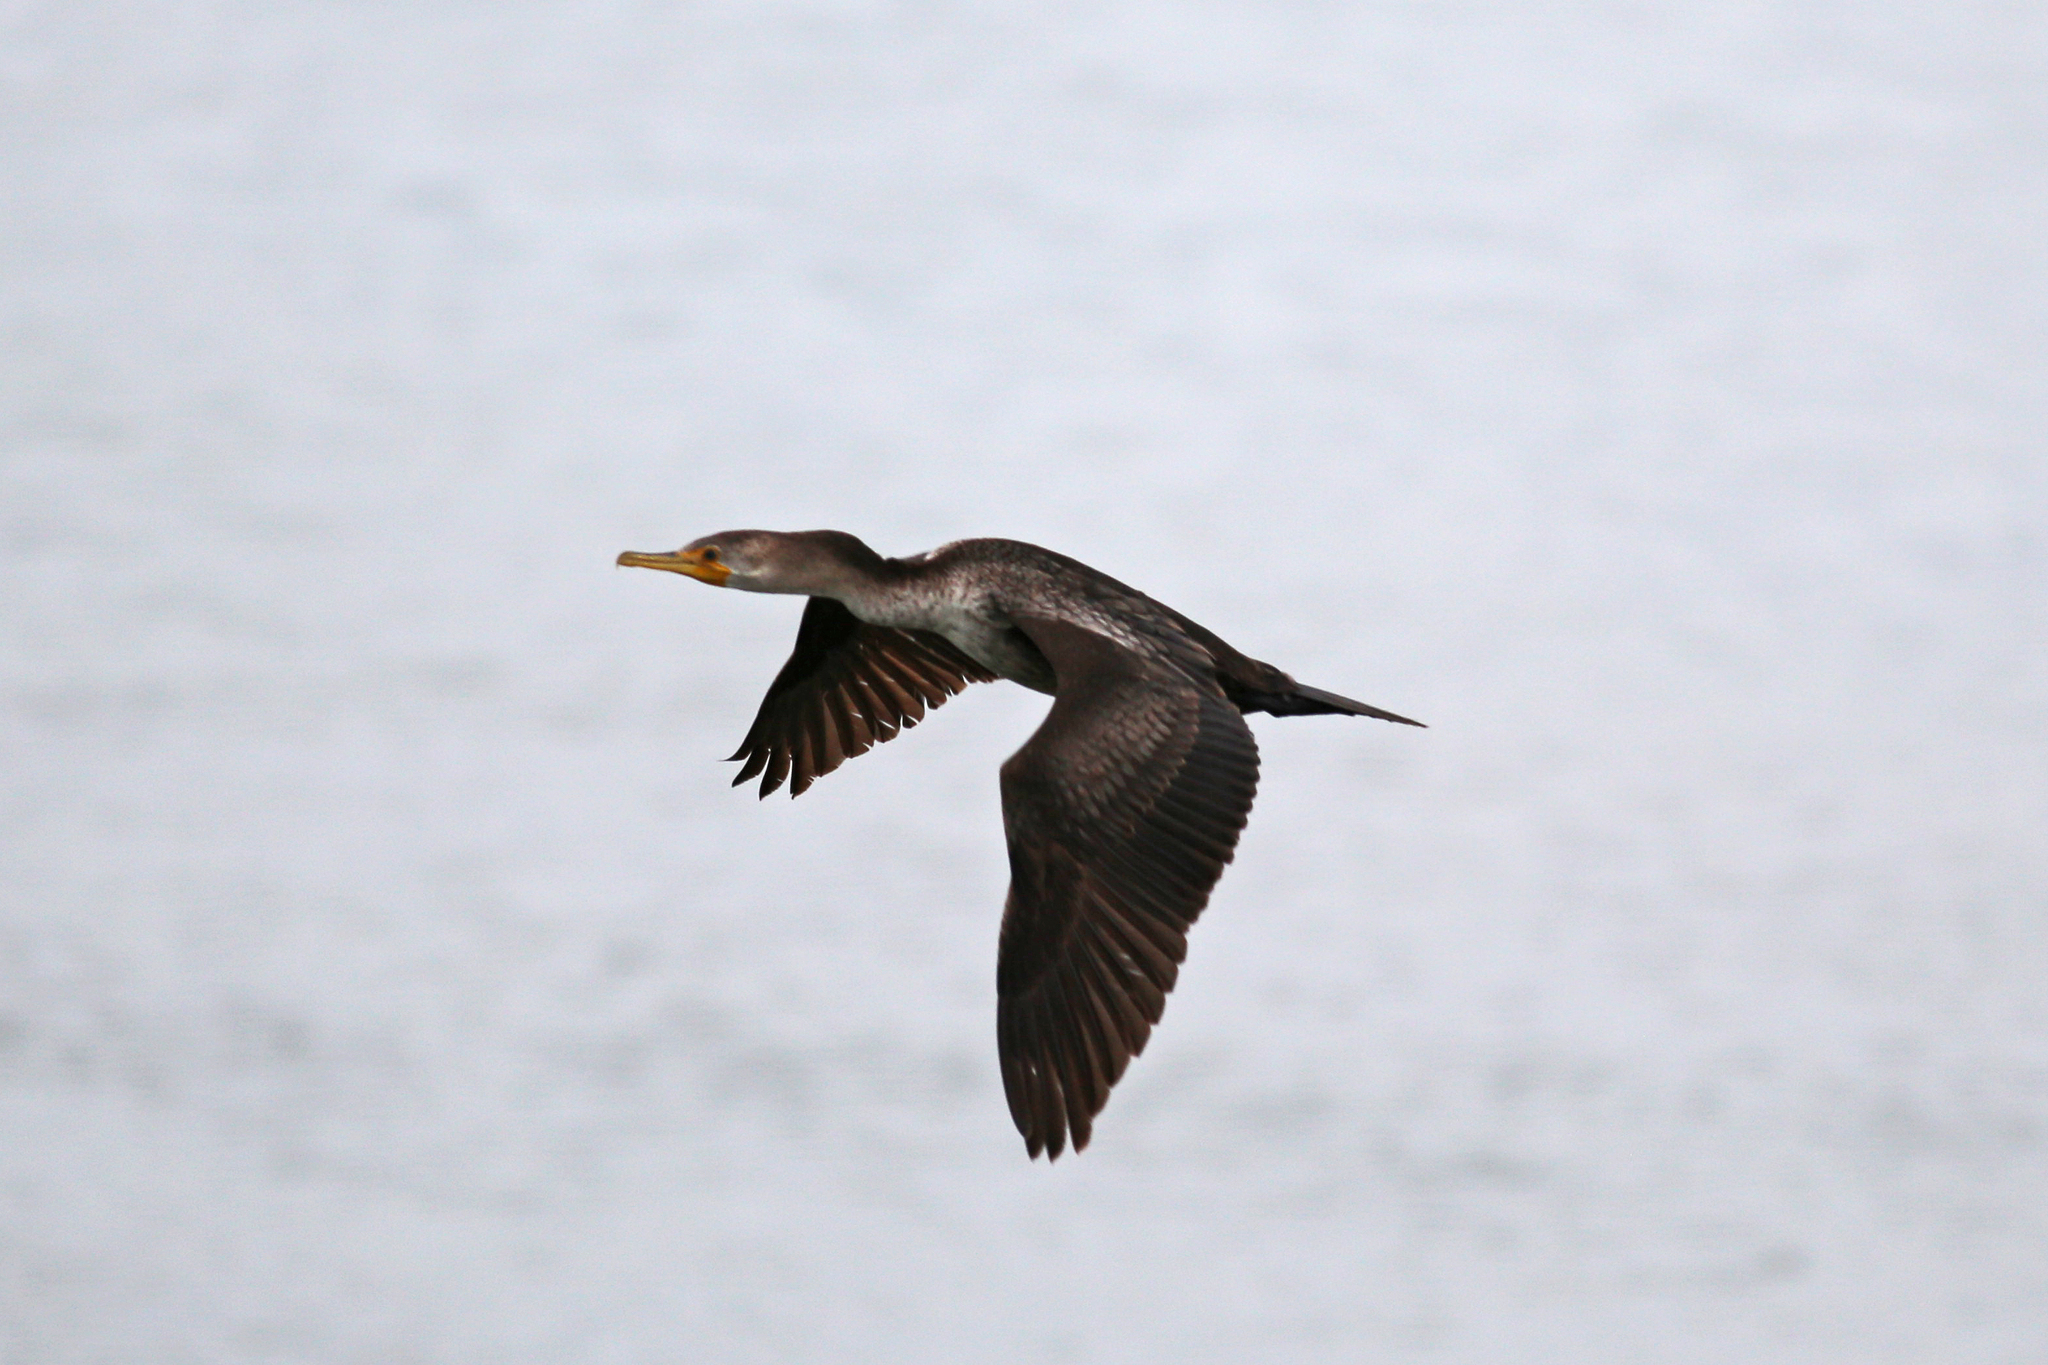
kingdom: Animalia
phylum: Chordata
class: Aves
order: Suliformes
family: Phalacrocoracidae
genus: Phalacrocorax
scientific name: Phalacrocorax auritus
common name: Double-crested cormorant
